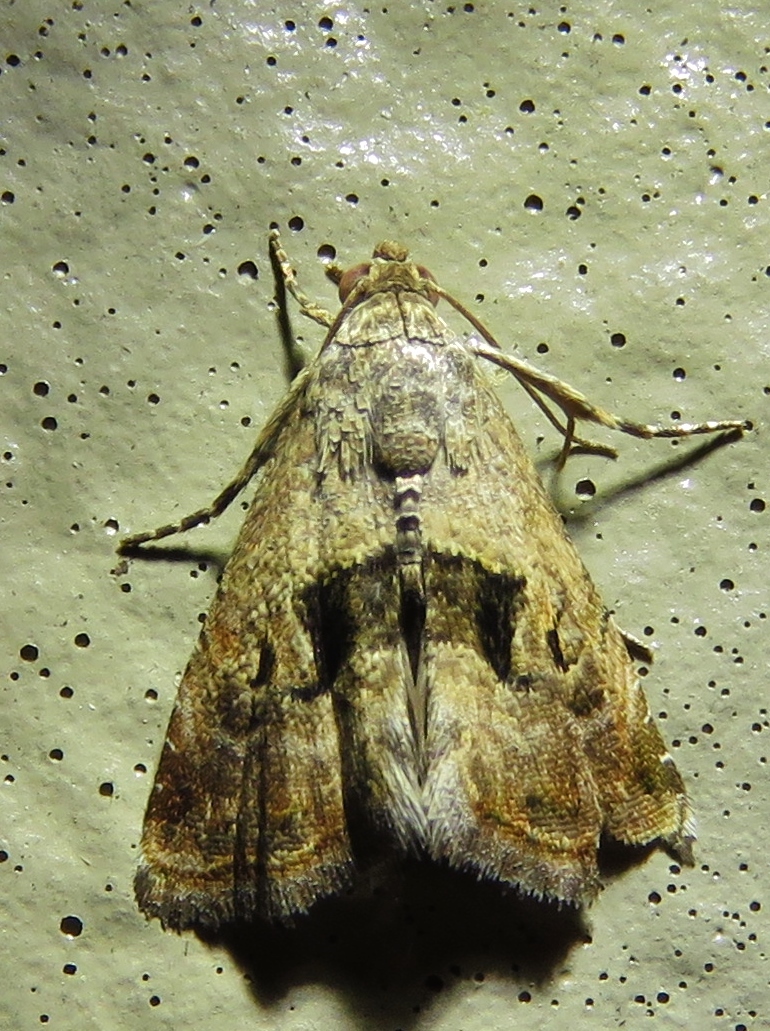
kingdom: Animalia
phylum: Arthropoda
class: Insecta
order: Lepidoptera
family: Noctuidae
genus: Tripudia
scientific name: Tripudia quadrifera
